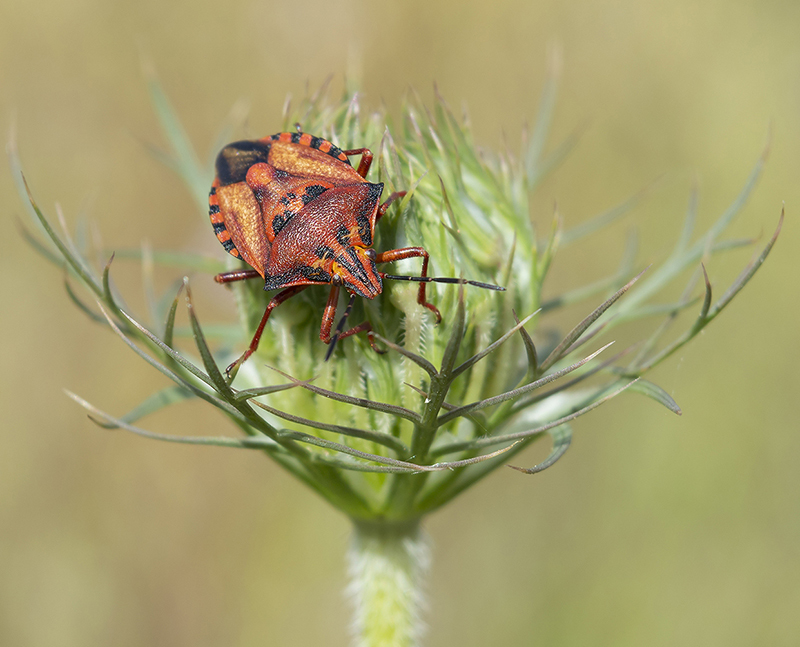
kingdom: Animalia
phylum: Arthropoda
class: Insecta
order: Hemiptera
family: Pentatomidae
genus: Carpocoris
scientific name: Carpocoris mediterraneus
